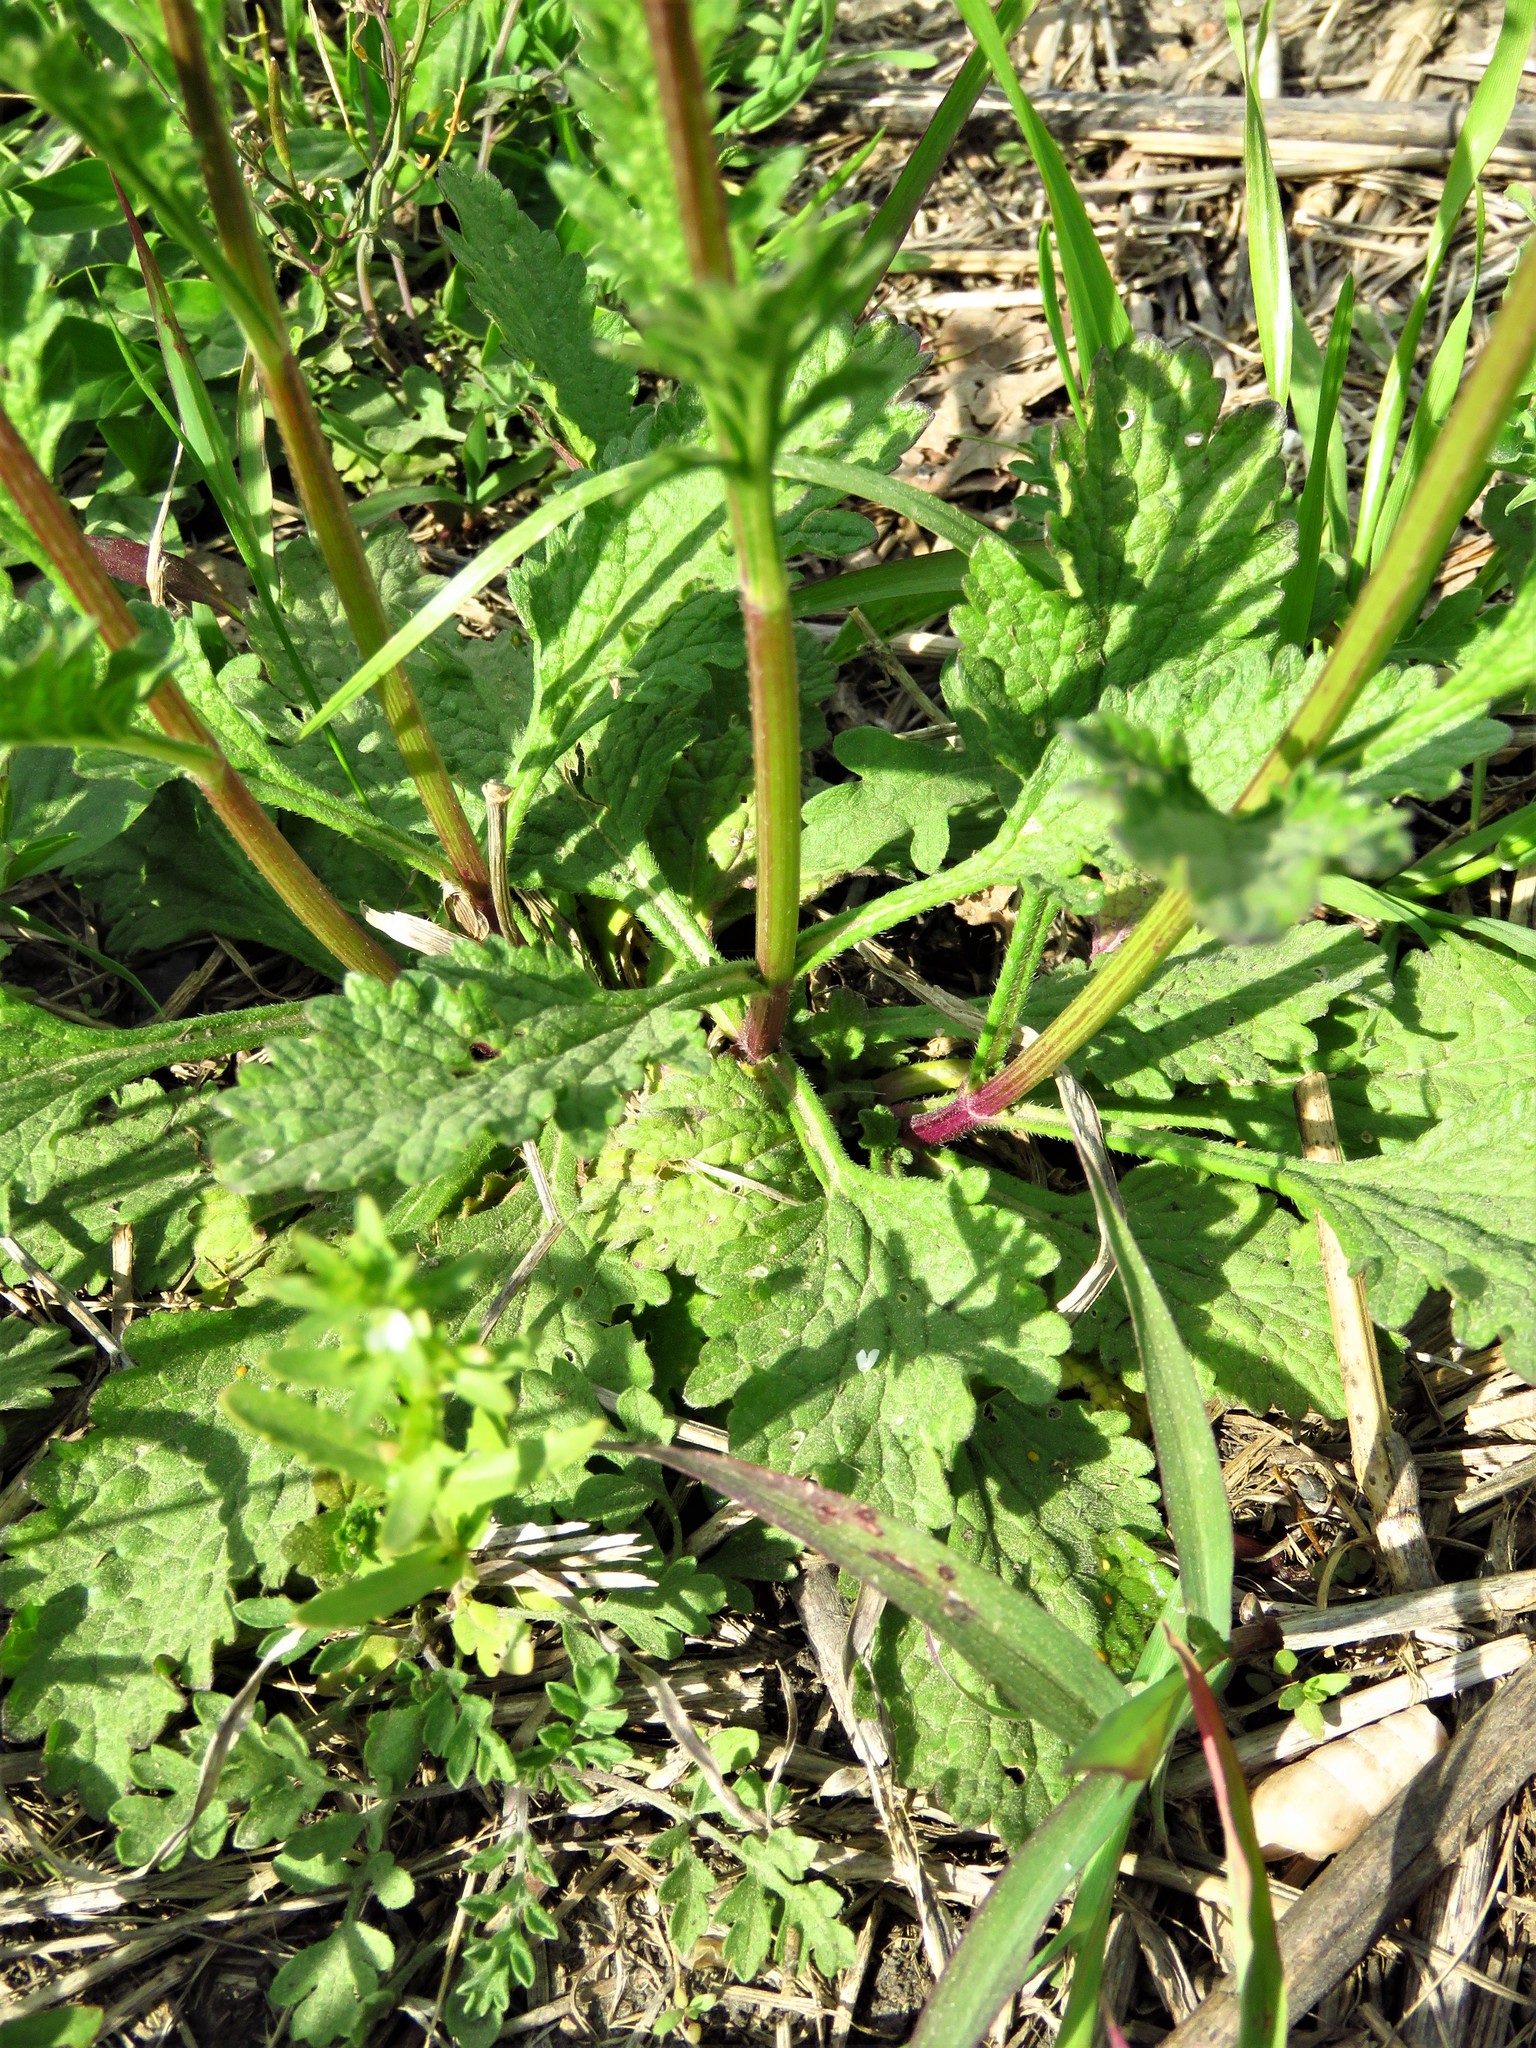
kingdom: Plantae
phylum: Tracheophyta
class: Magnoliopsida
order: Lamiales
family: Verbenaceae
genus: Verbena
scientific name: Verbena halei
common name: Texas vervain
